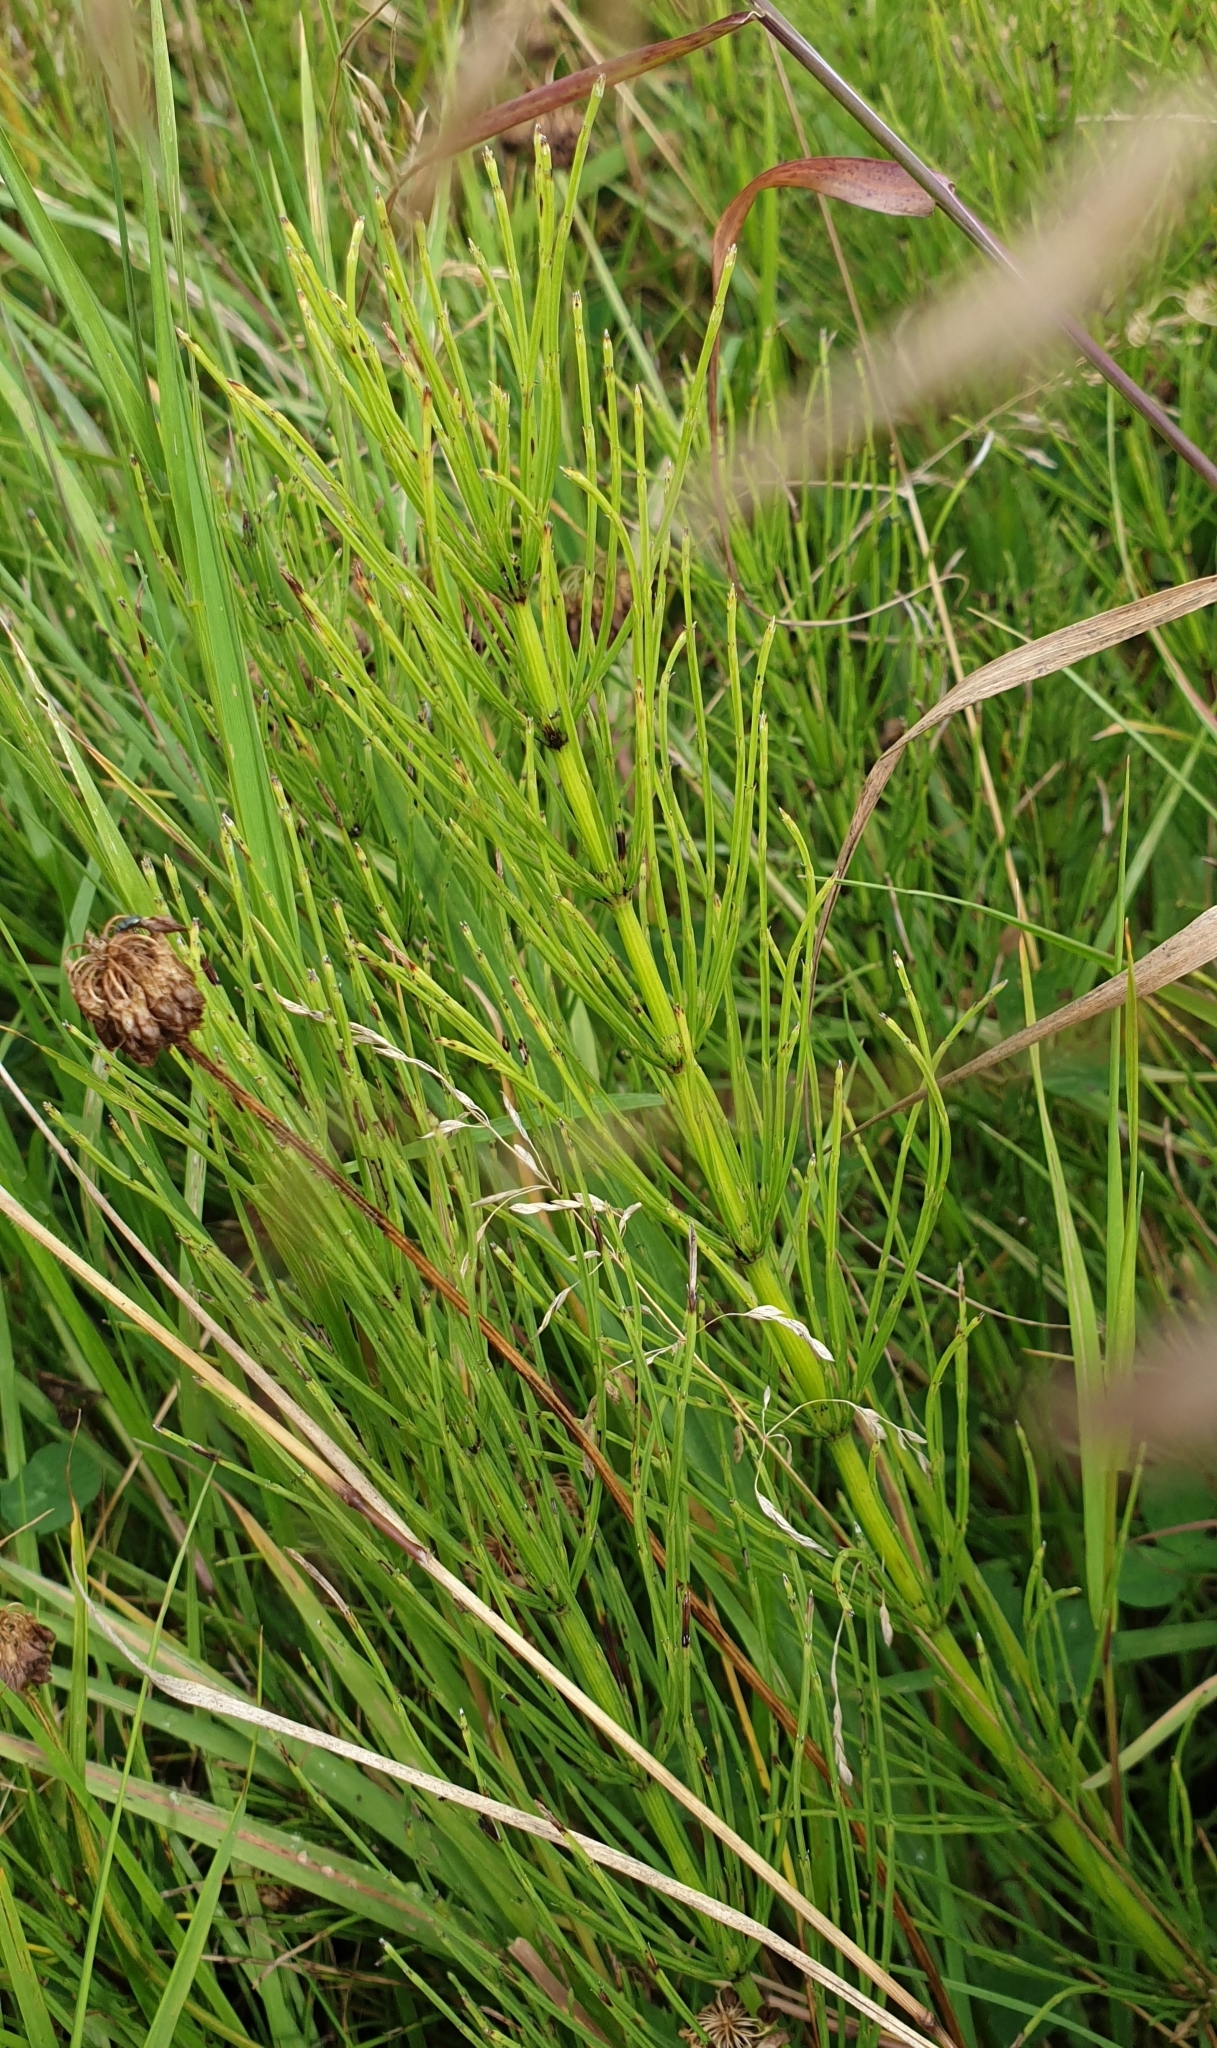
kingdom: Plantae
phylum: Tracheophyta
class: Polypodiopsida
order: Equisetales
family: Equisetaceae
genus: Equisetum
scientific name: Equisetum arvense
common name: Field horsetail
